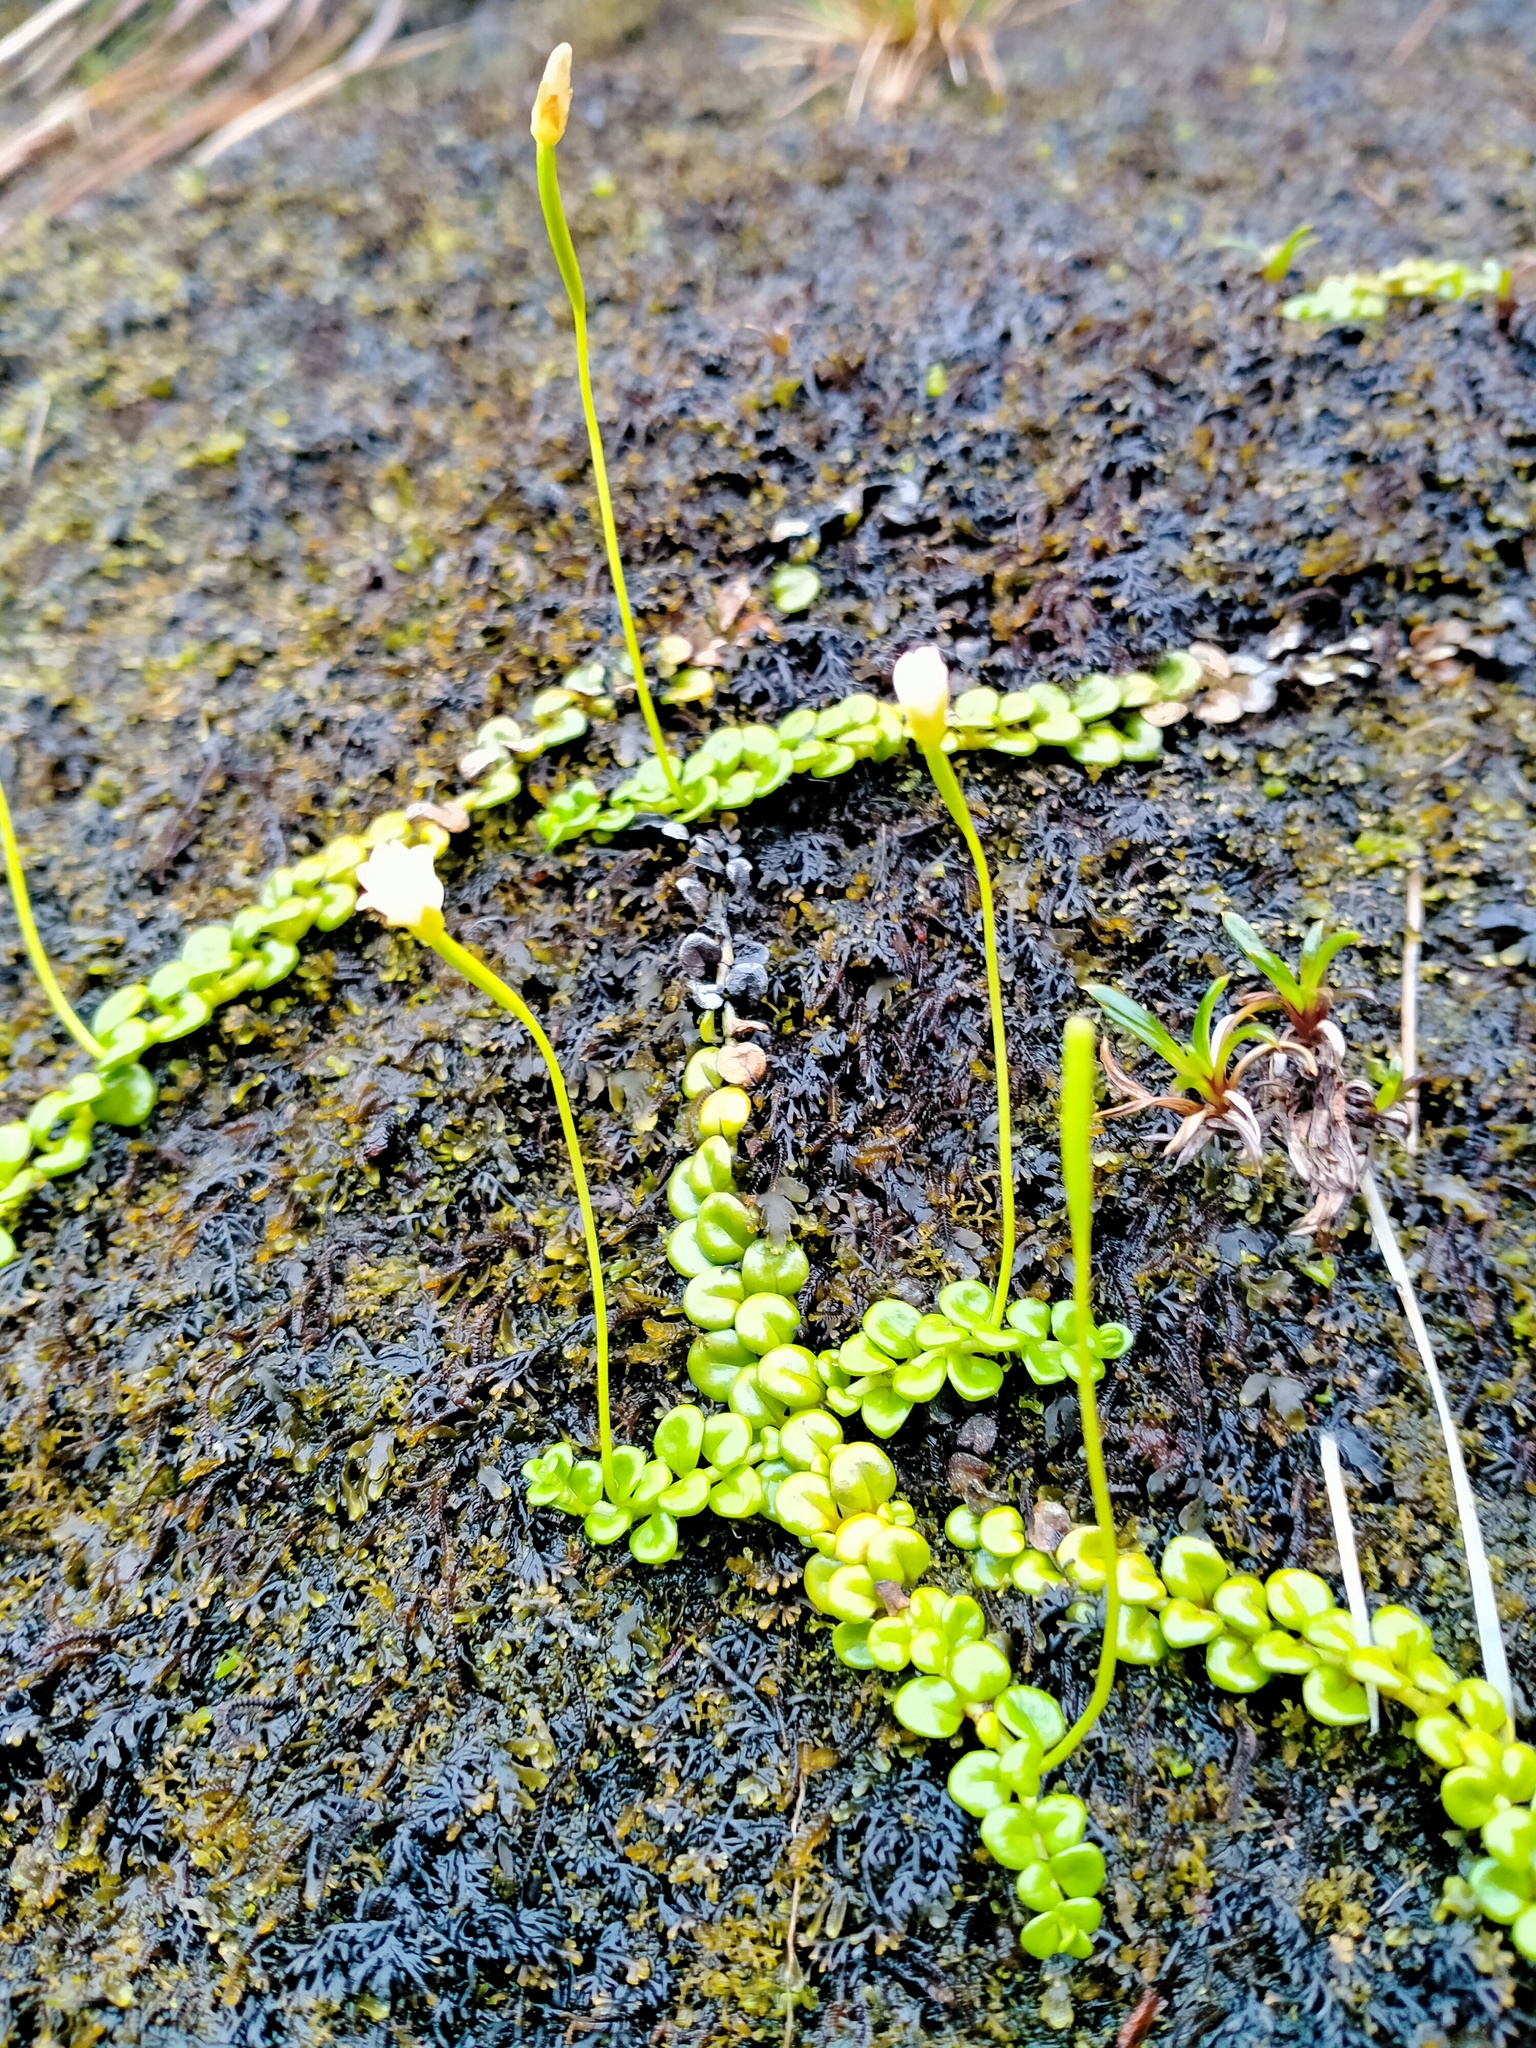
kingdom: Plantae
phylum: Tracheophyta
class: Magnoliopsida
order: Myrtales
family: Onagraceae
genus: Epilobium
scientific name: Epilobium pernitens
